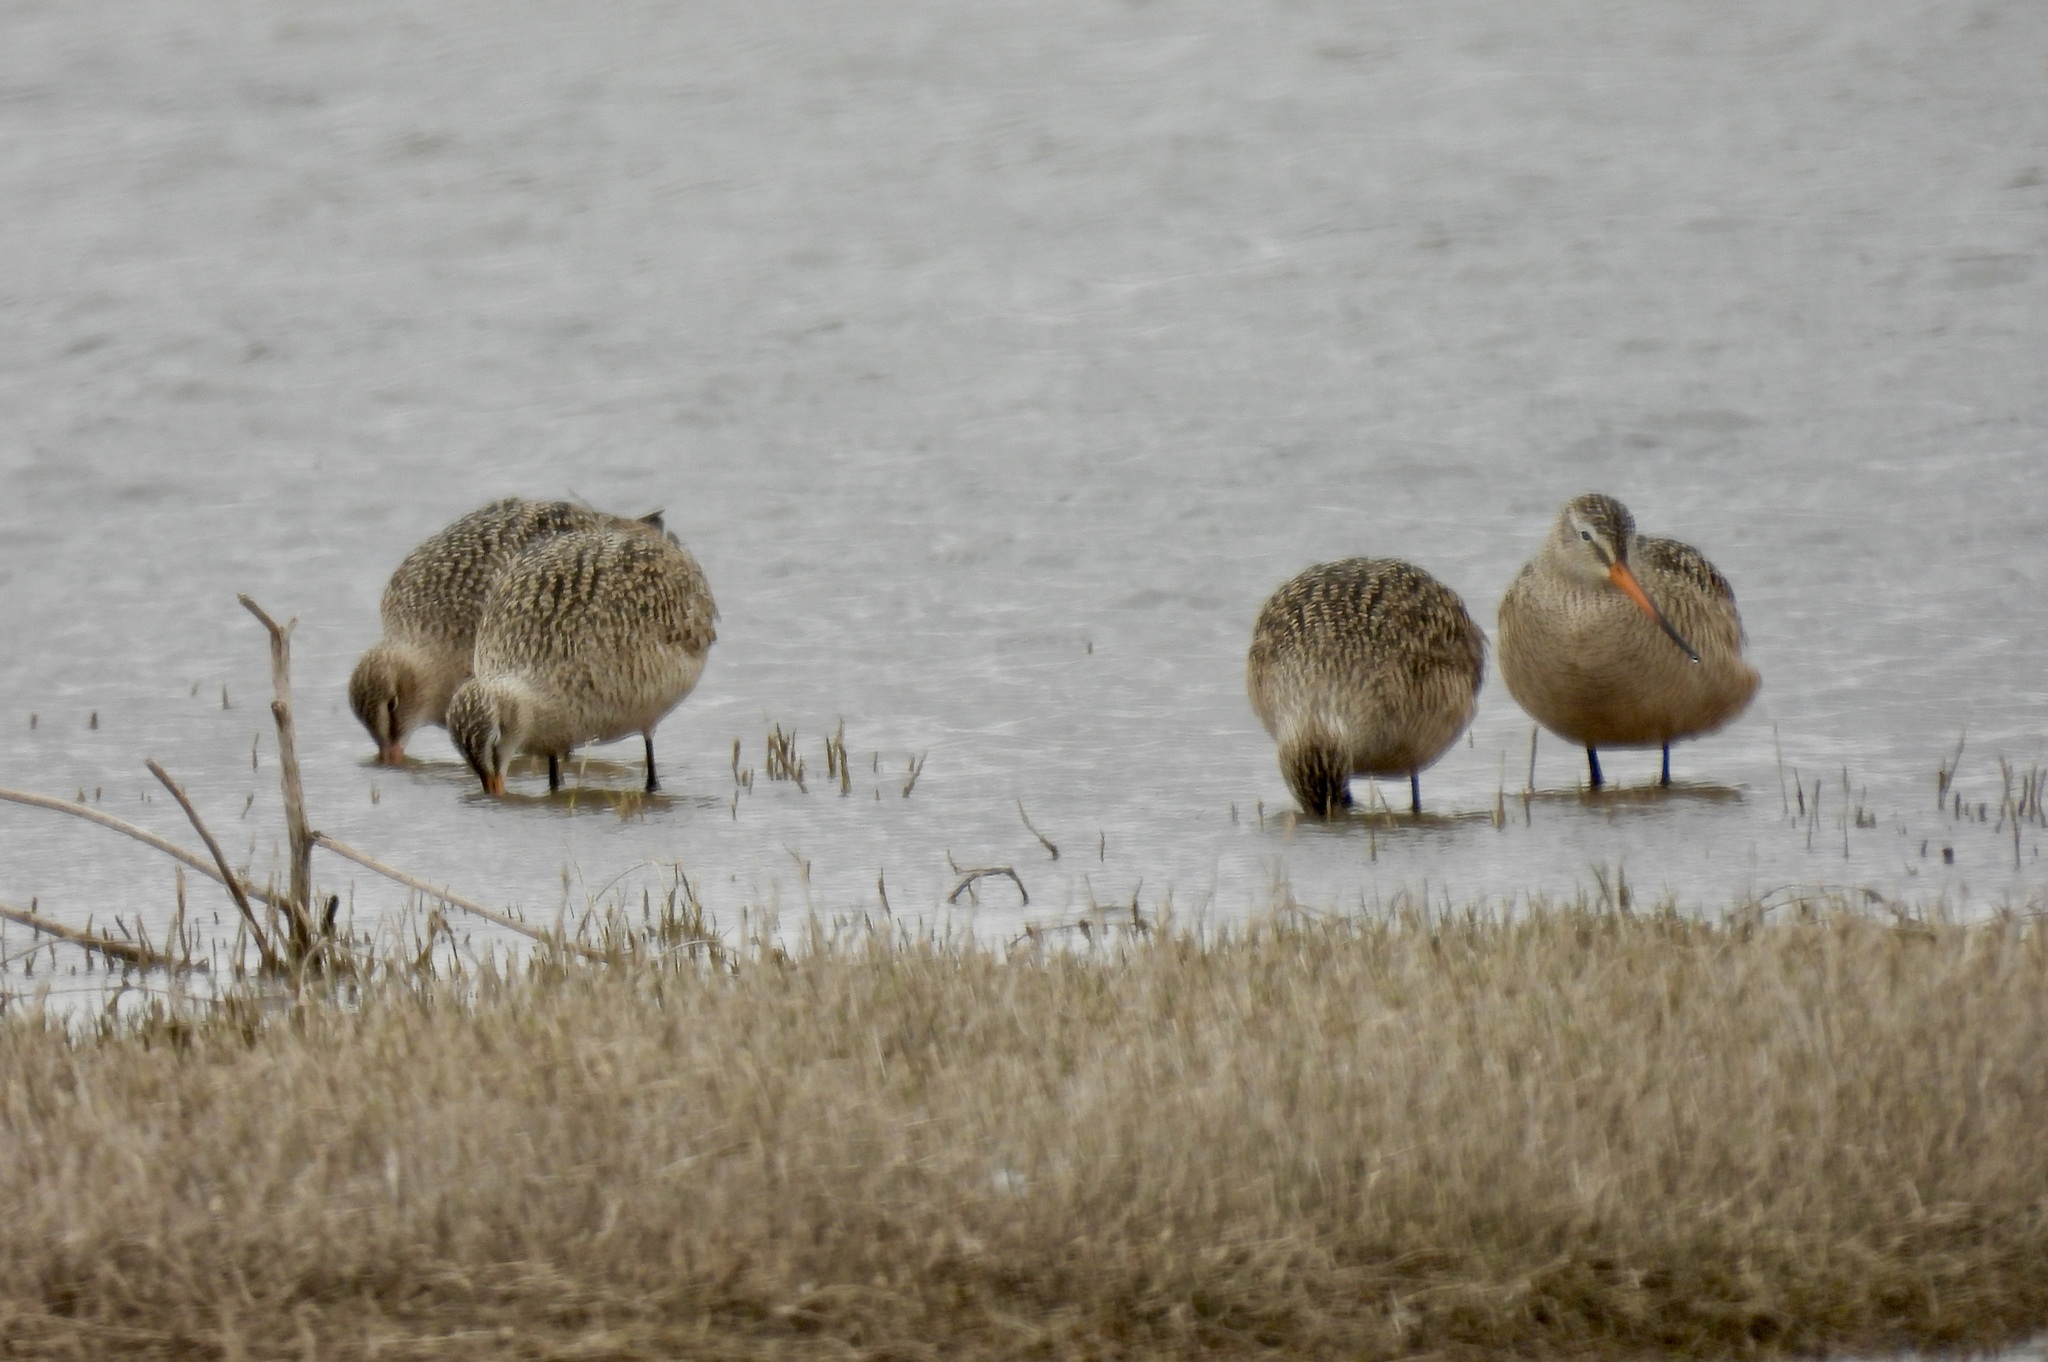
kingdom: Animalia
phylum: Chordata
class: Aves
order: Charadriiformes
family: Scolopacidae
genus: Limosa
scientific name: Limosa fedoa
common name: Marbled godwit
